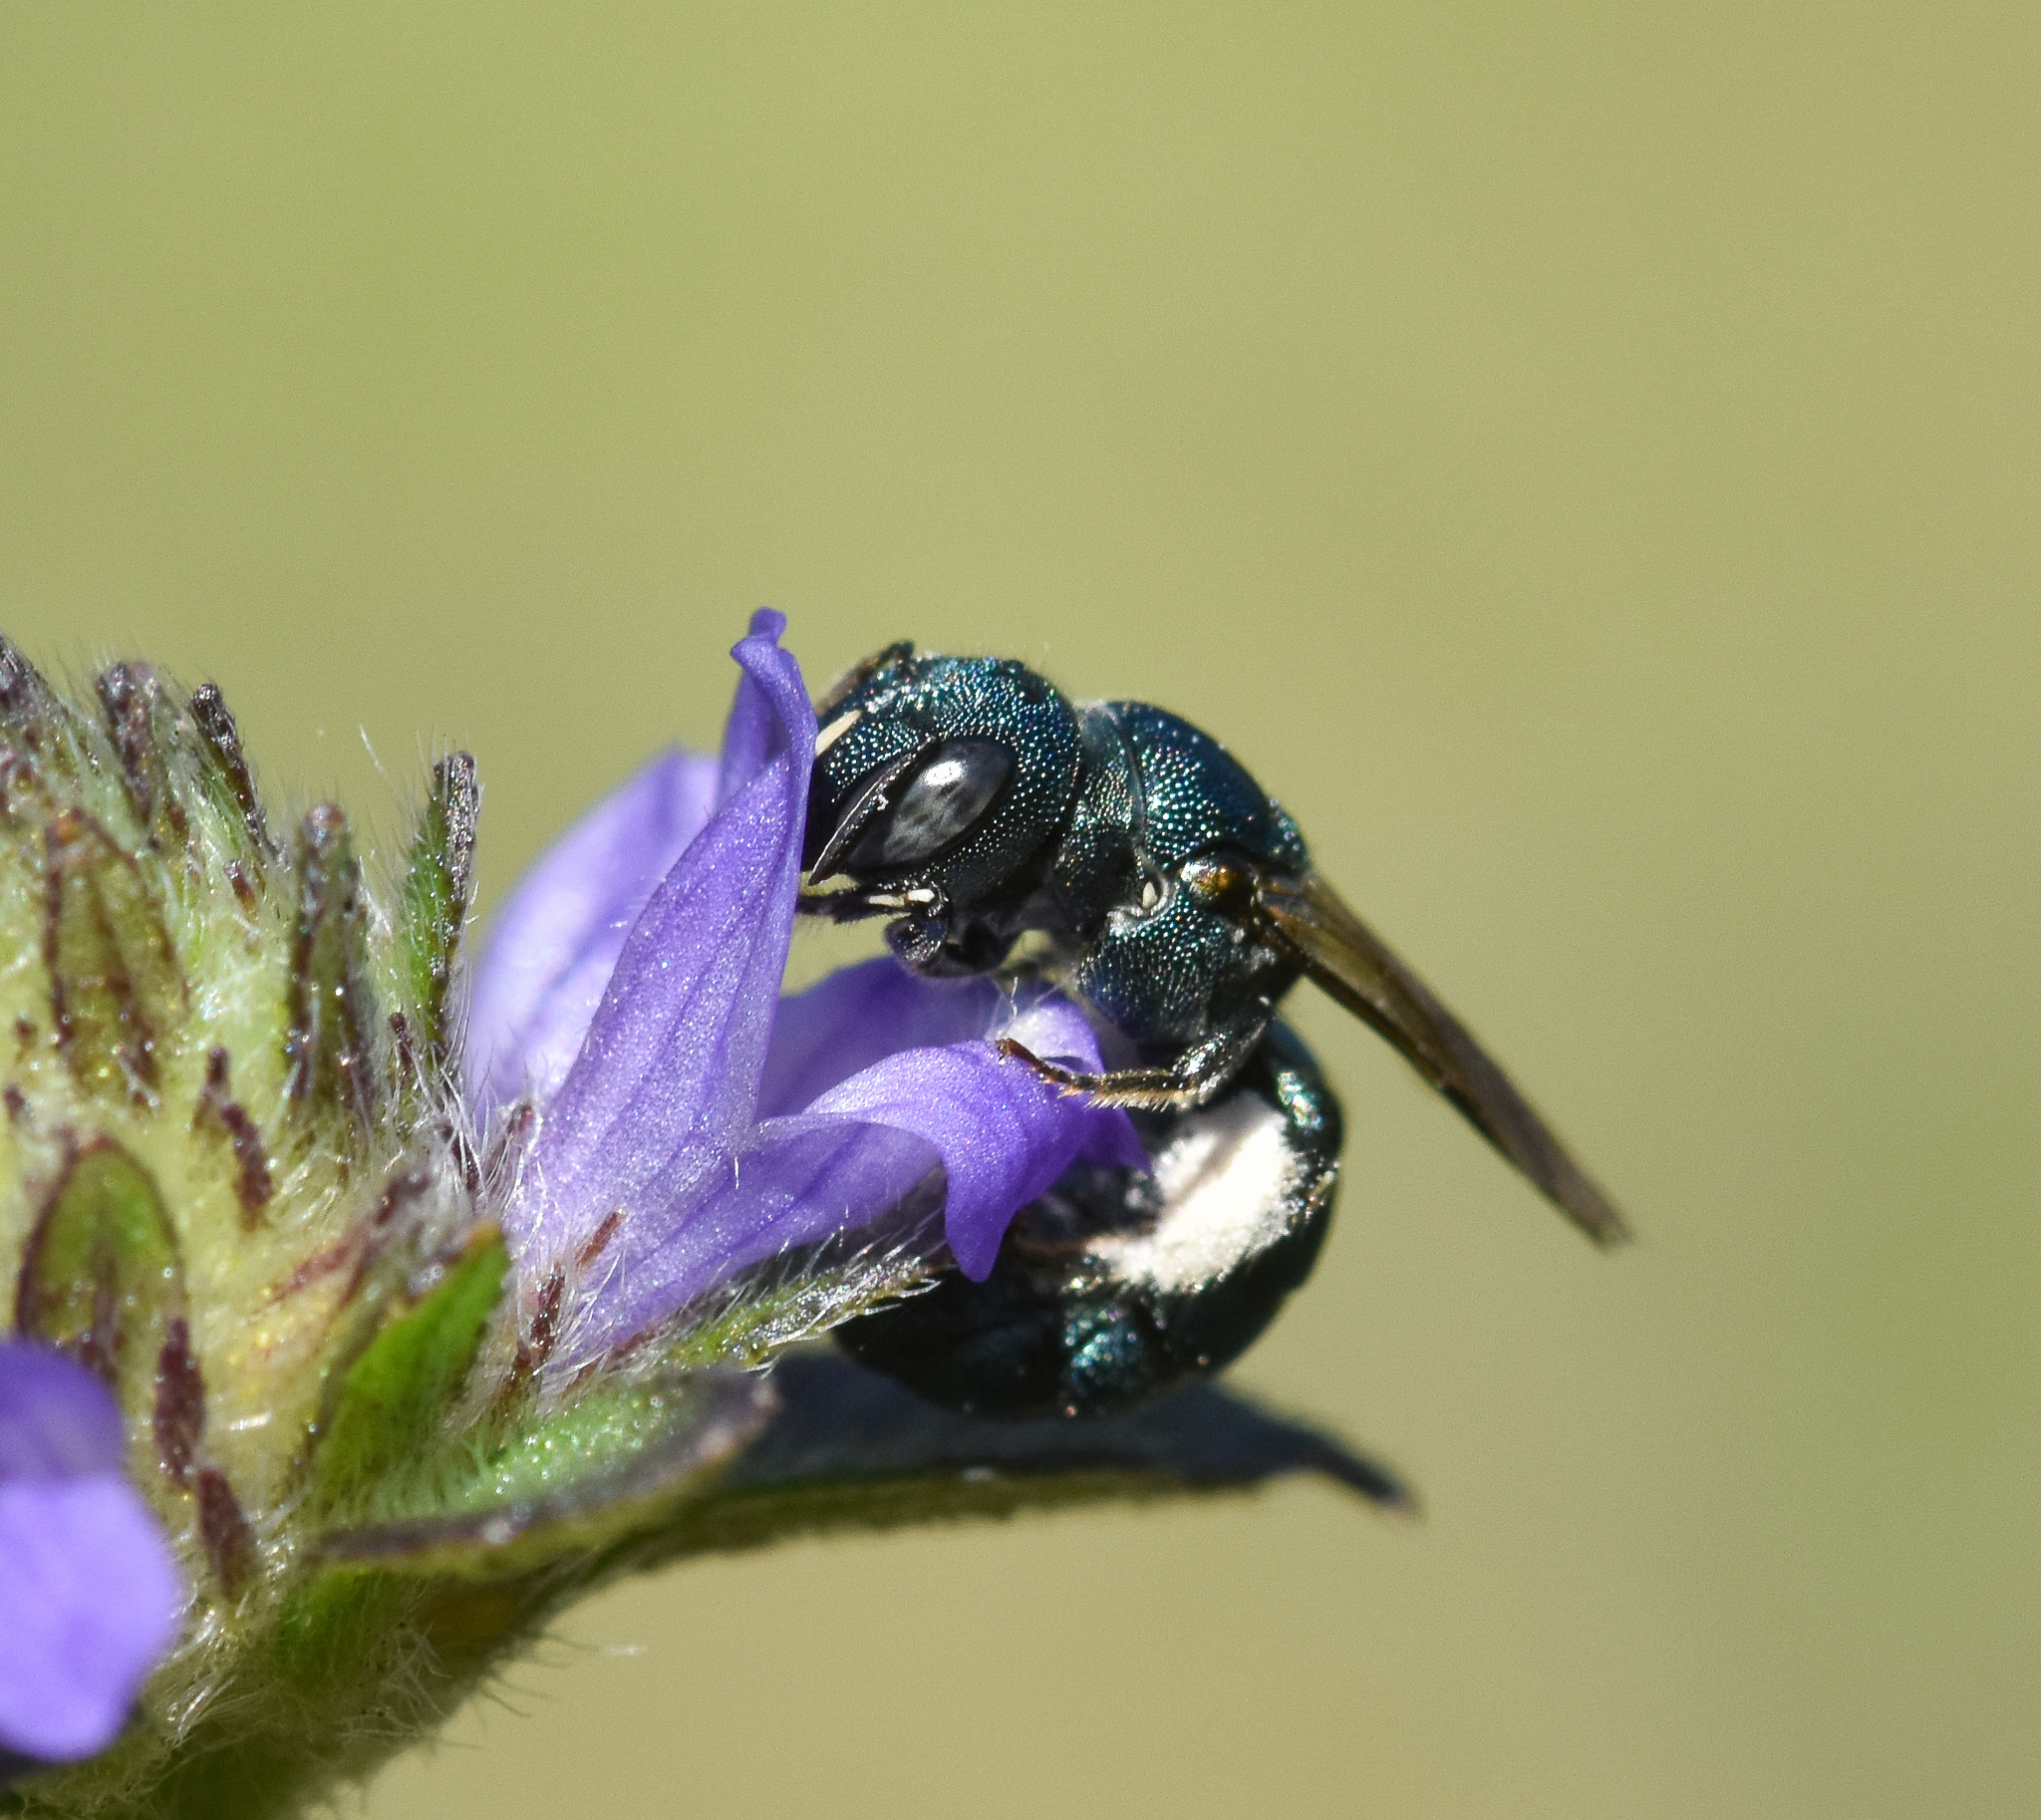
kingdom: Animalia
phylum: Arthropoda
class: Insecta
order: Hymenoptera
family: Apidae
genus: Ceratina
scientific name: Ceratina unimaculata
